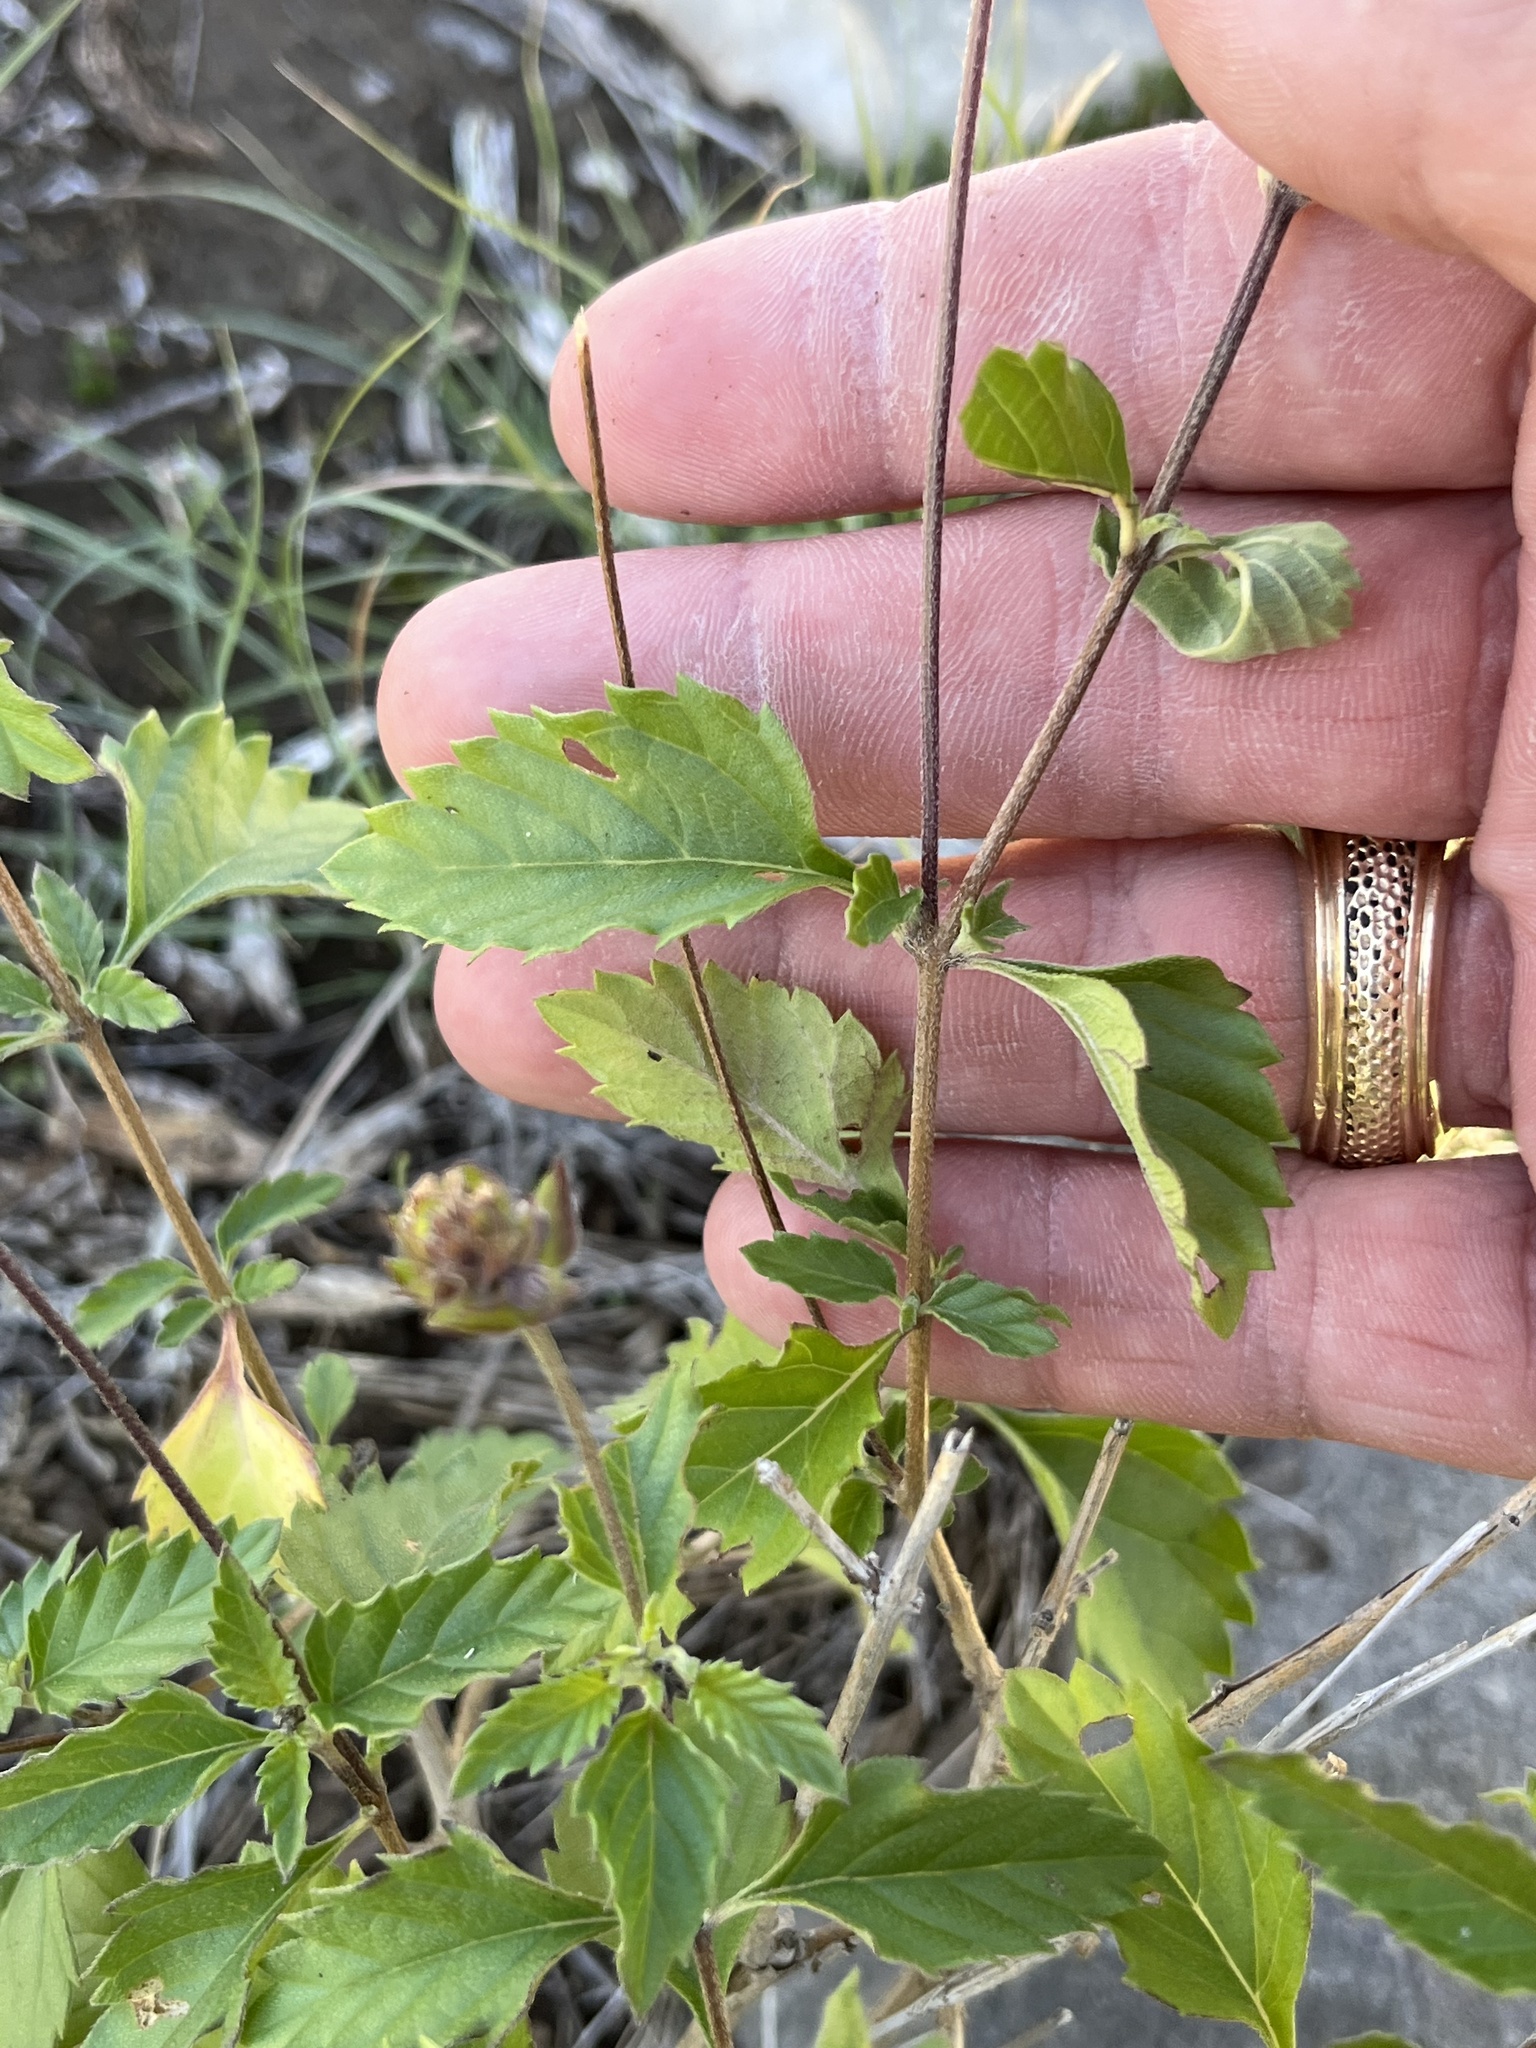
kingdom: Plantae
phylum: Tracheophyta
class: Magnoliopsida
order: Lamiales
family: Verbenaceae
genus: Lantana
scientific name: Lantana achyranthifolia
